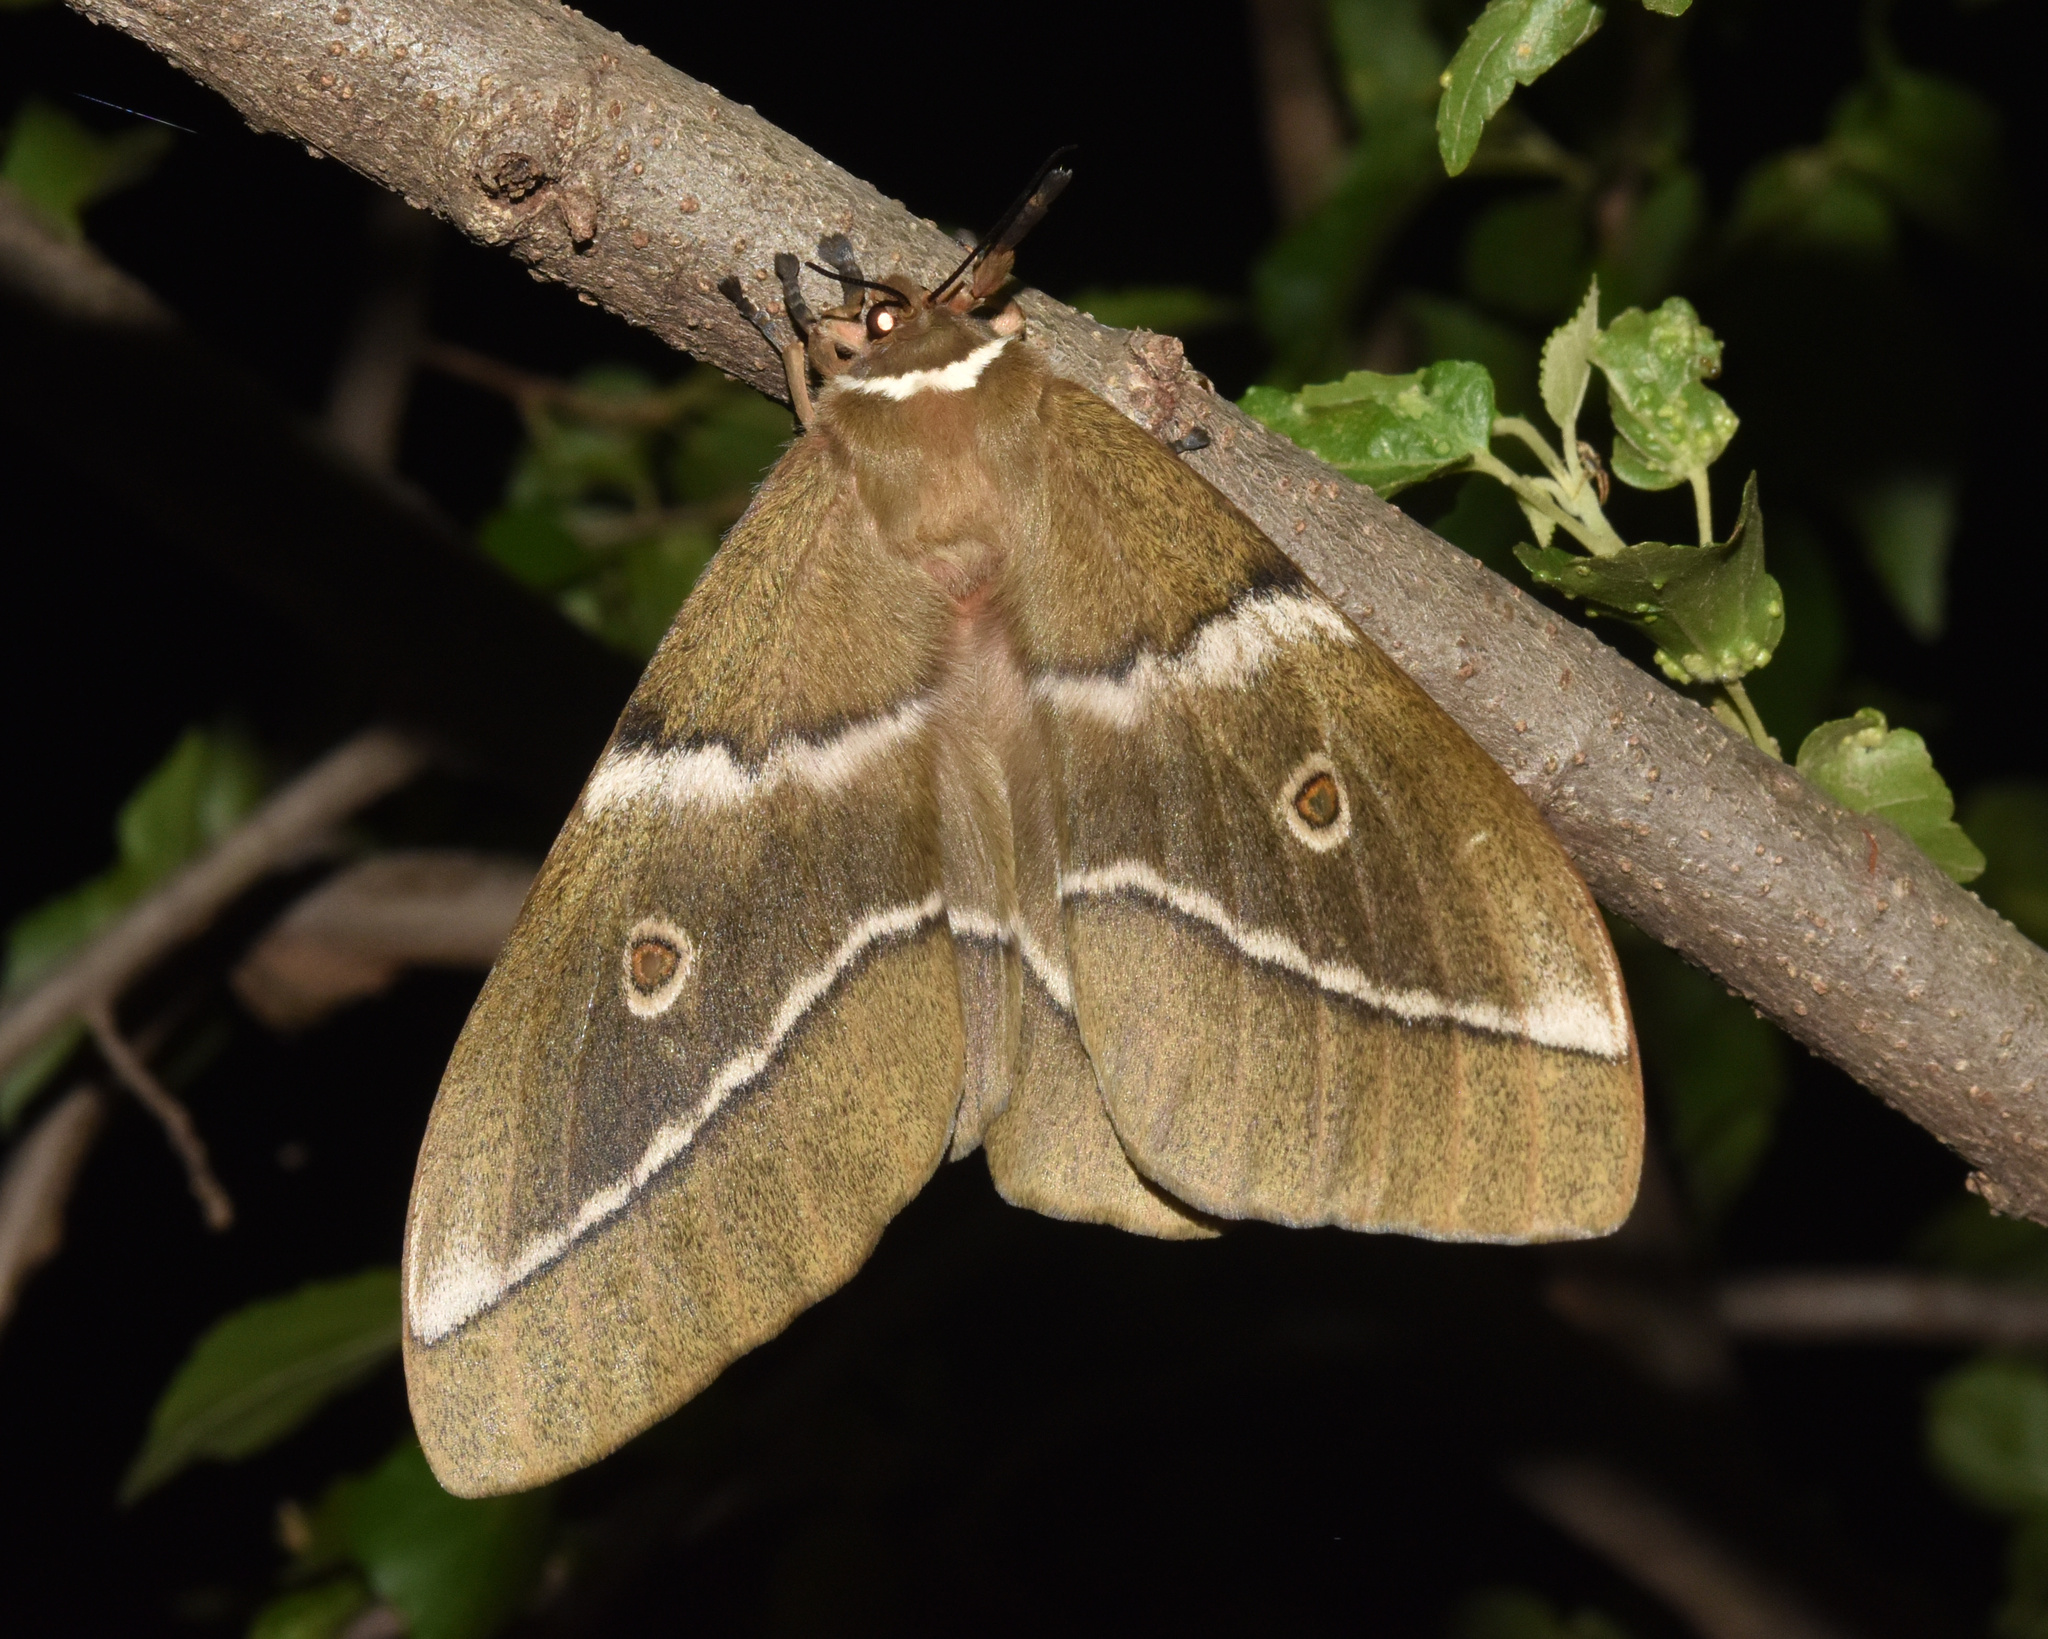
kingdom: Animalia
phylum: Arthropoda
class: Insecta
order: Lepidoptera
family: Saturniidae
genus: Gonimbrasia
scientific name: Gonimbrasia belina
